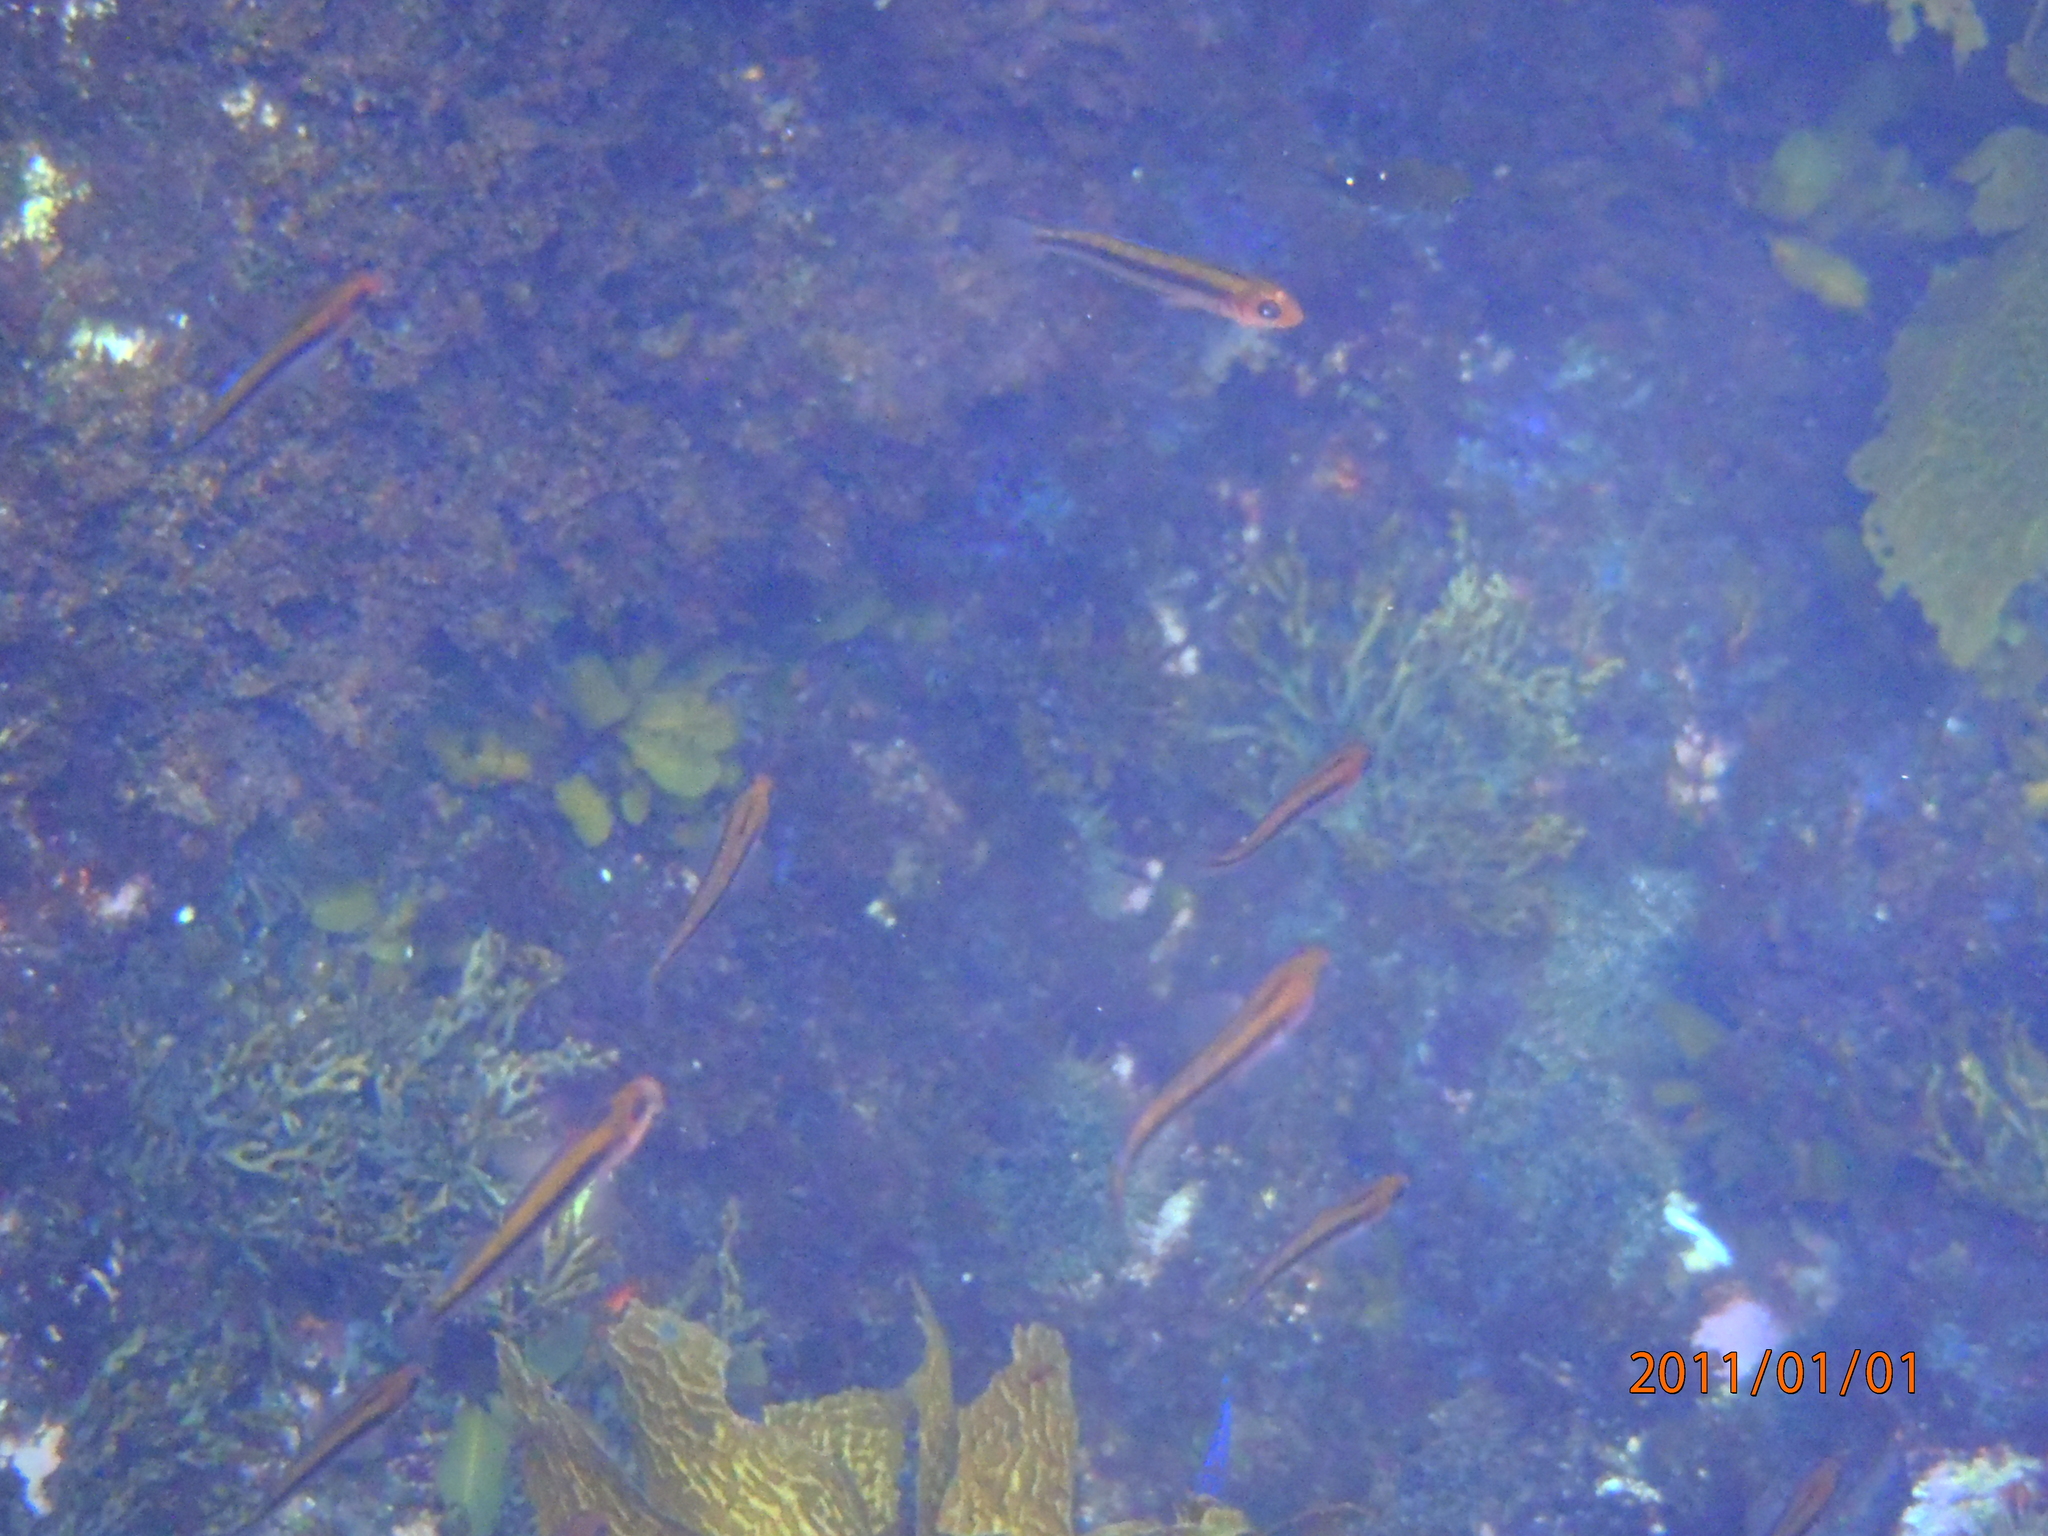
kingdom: Animalia
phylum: Chordata
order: Perciformes
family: Tripterygiidae
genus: Forsterygion
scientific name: Forsterygion maryannae
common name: Oblique-swimming triplefin
